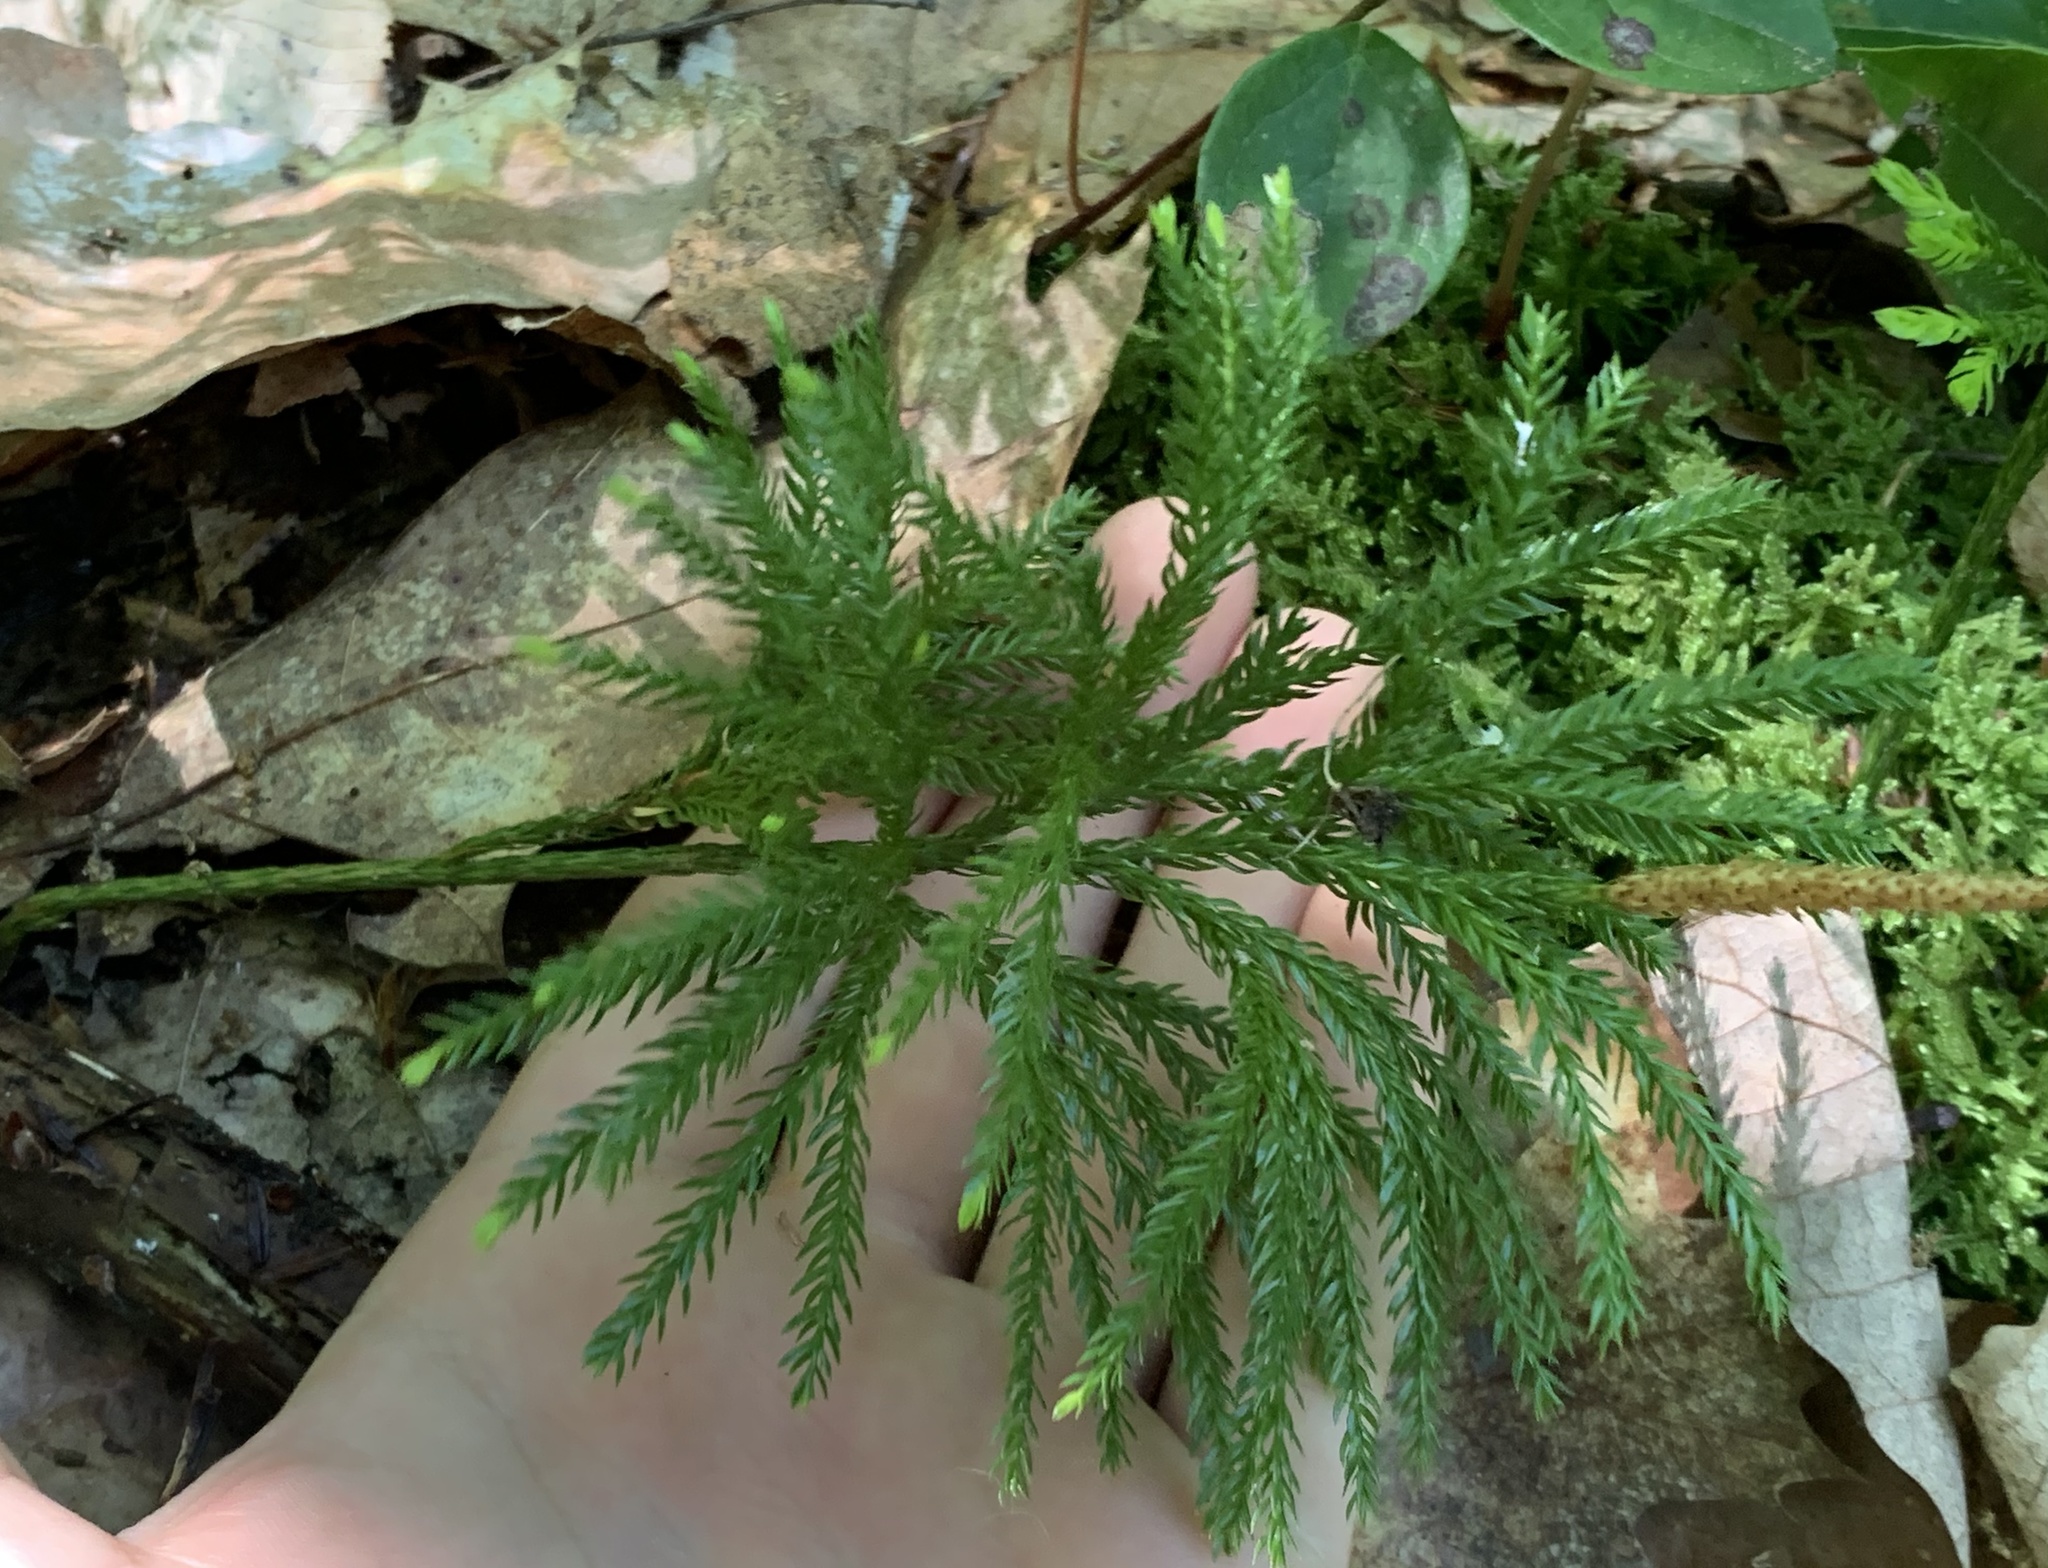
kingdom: Plantae
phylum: Tracheophyta
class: Lycopodiopsida
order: Lycopodiales
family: Lycopodiaceae
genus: Dendrolycopodium
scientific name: Dendrolycopodium obscurum
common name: Common ground-pine
